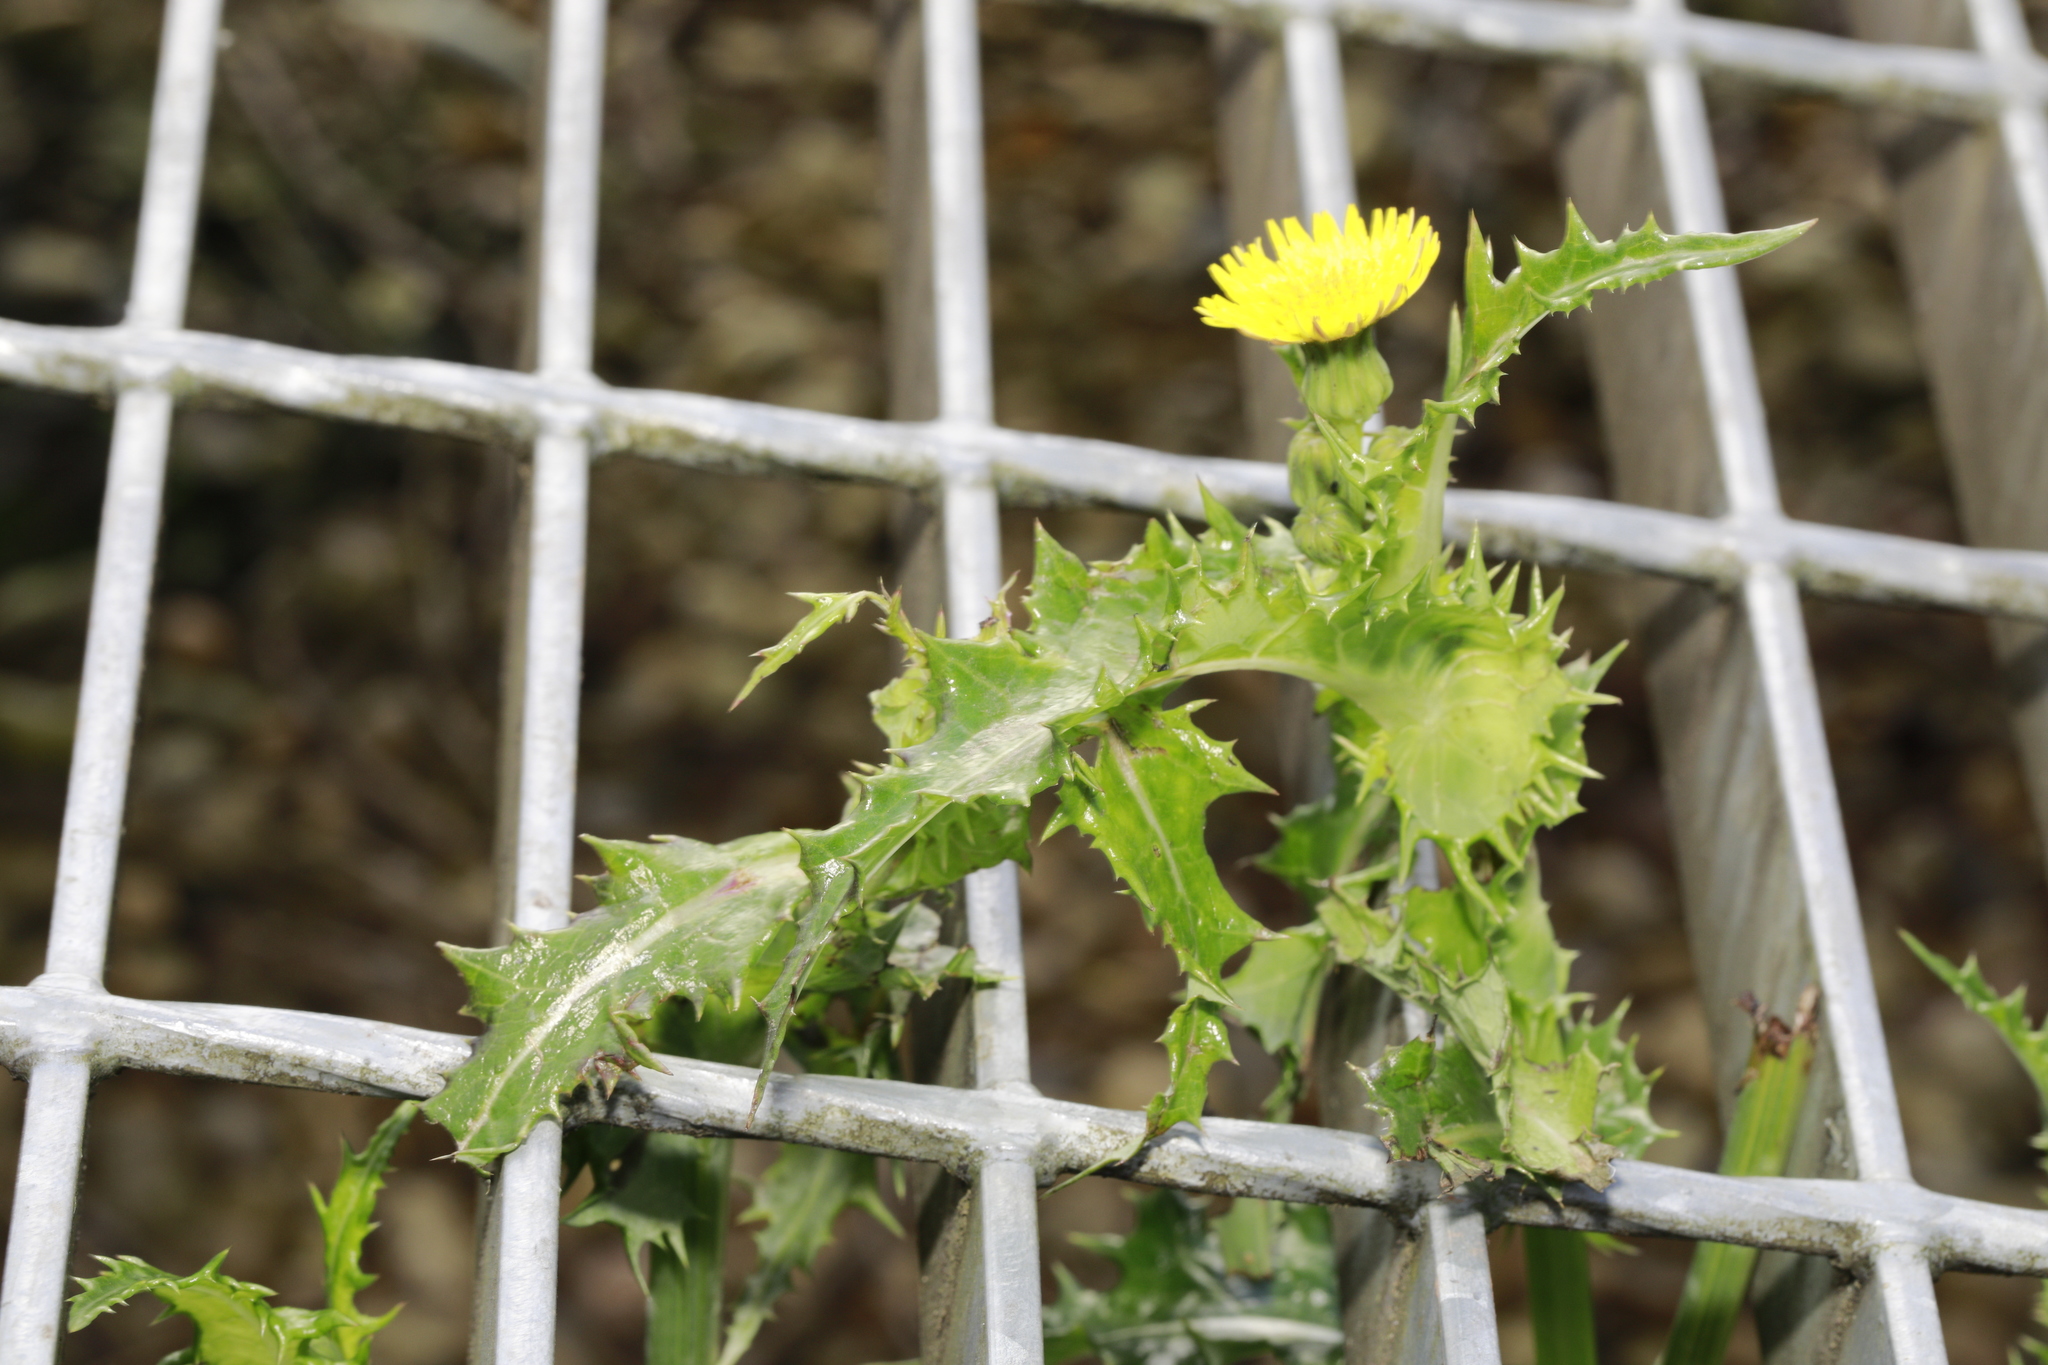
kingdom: Plantae
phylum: Tracheophyta
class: Magnoliopsida
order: Asterales
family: Asteraceae
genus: Sonchus
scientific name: Sonchus asper
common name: Prickly sow-thistle
